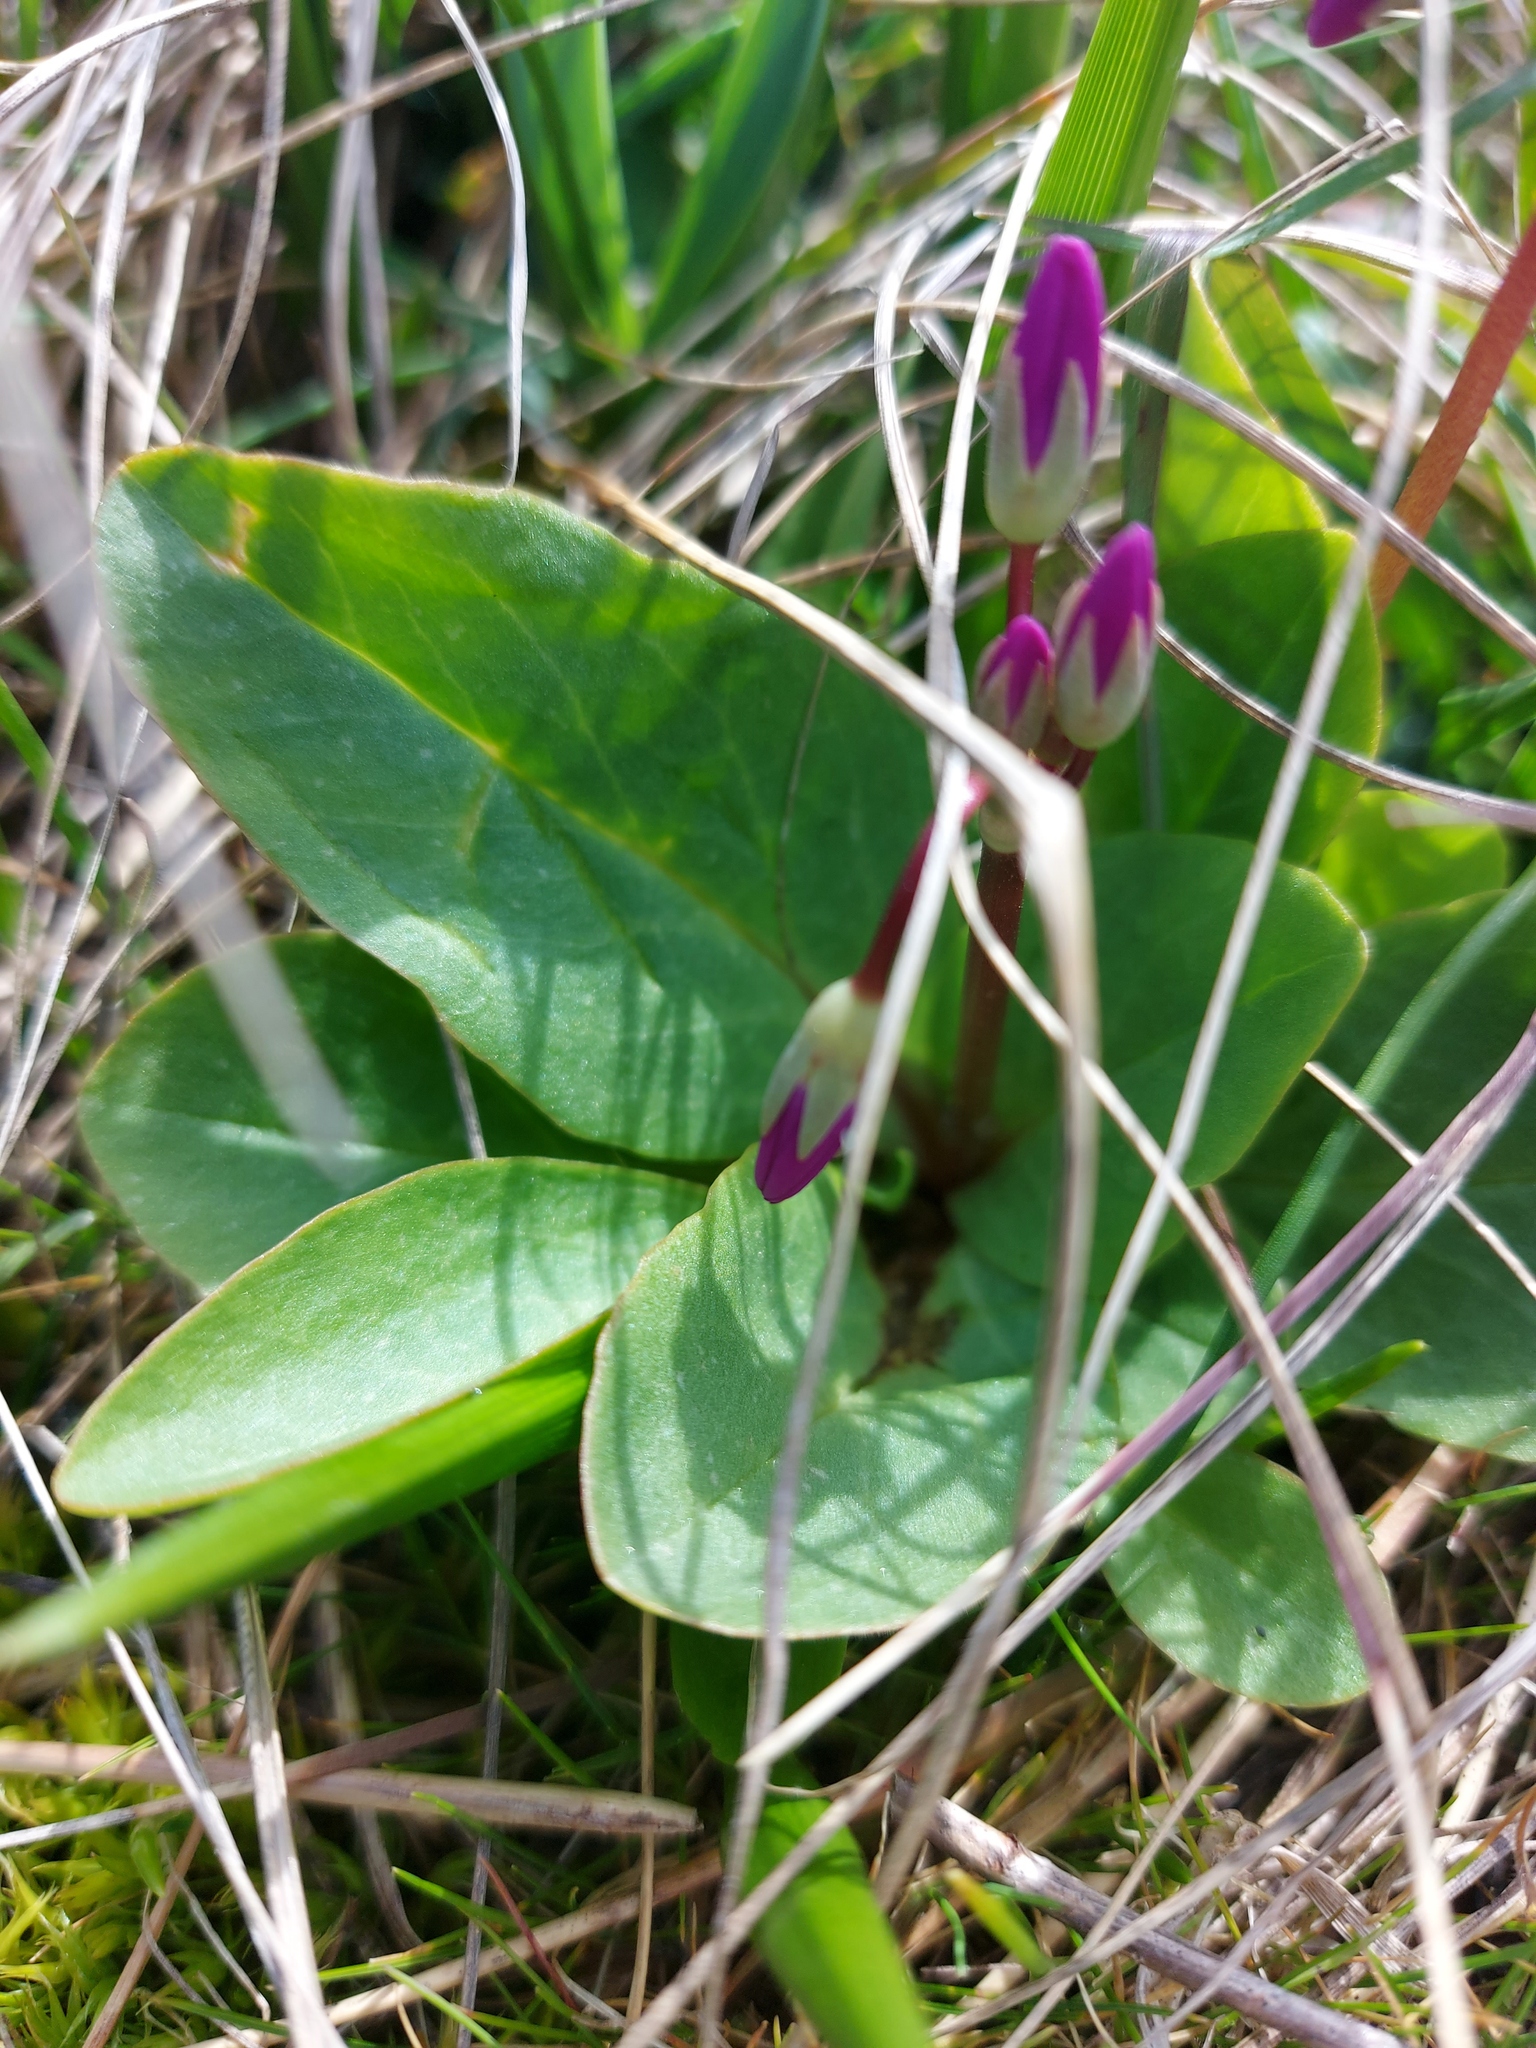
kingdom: Plantae
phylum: Tracheophyta
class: Magnoliopsida
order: Ericales
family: Primulaceae
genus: Dodecatheon
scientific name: Dodecatheon pulchellum
